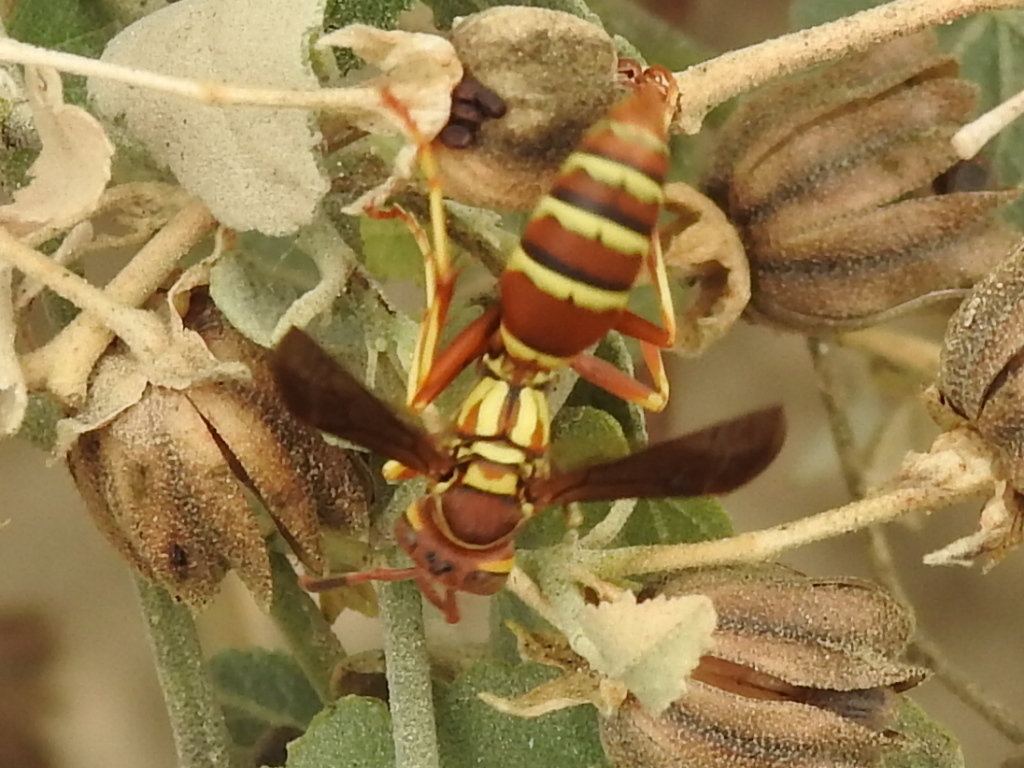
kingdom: Animalia
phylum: Arthropoda
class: Insecta
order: Hymenoptera
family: Eumenidae
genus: Polistes
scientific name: Polistes dorsalis
